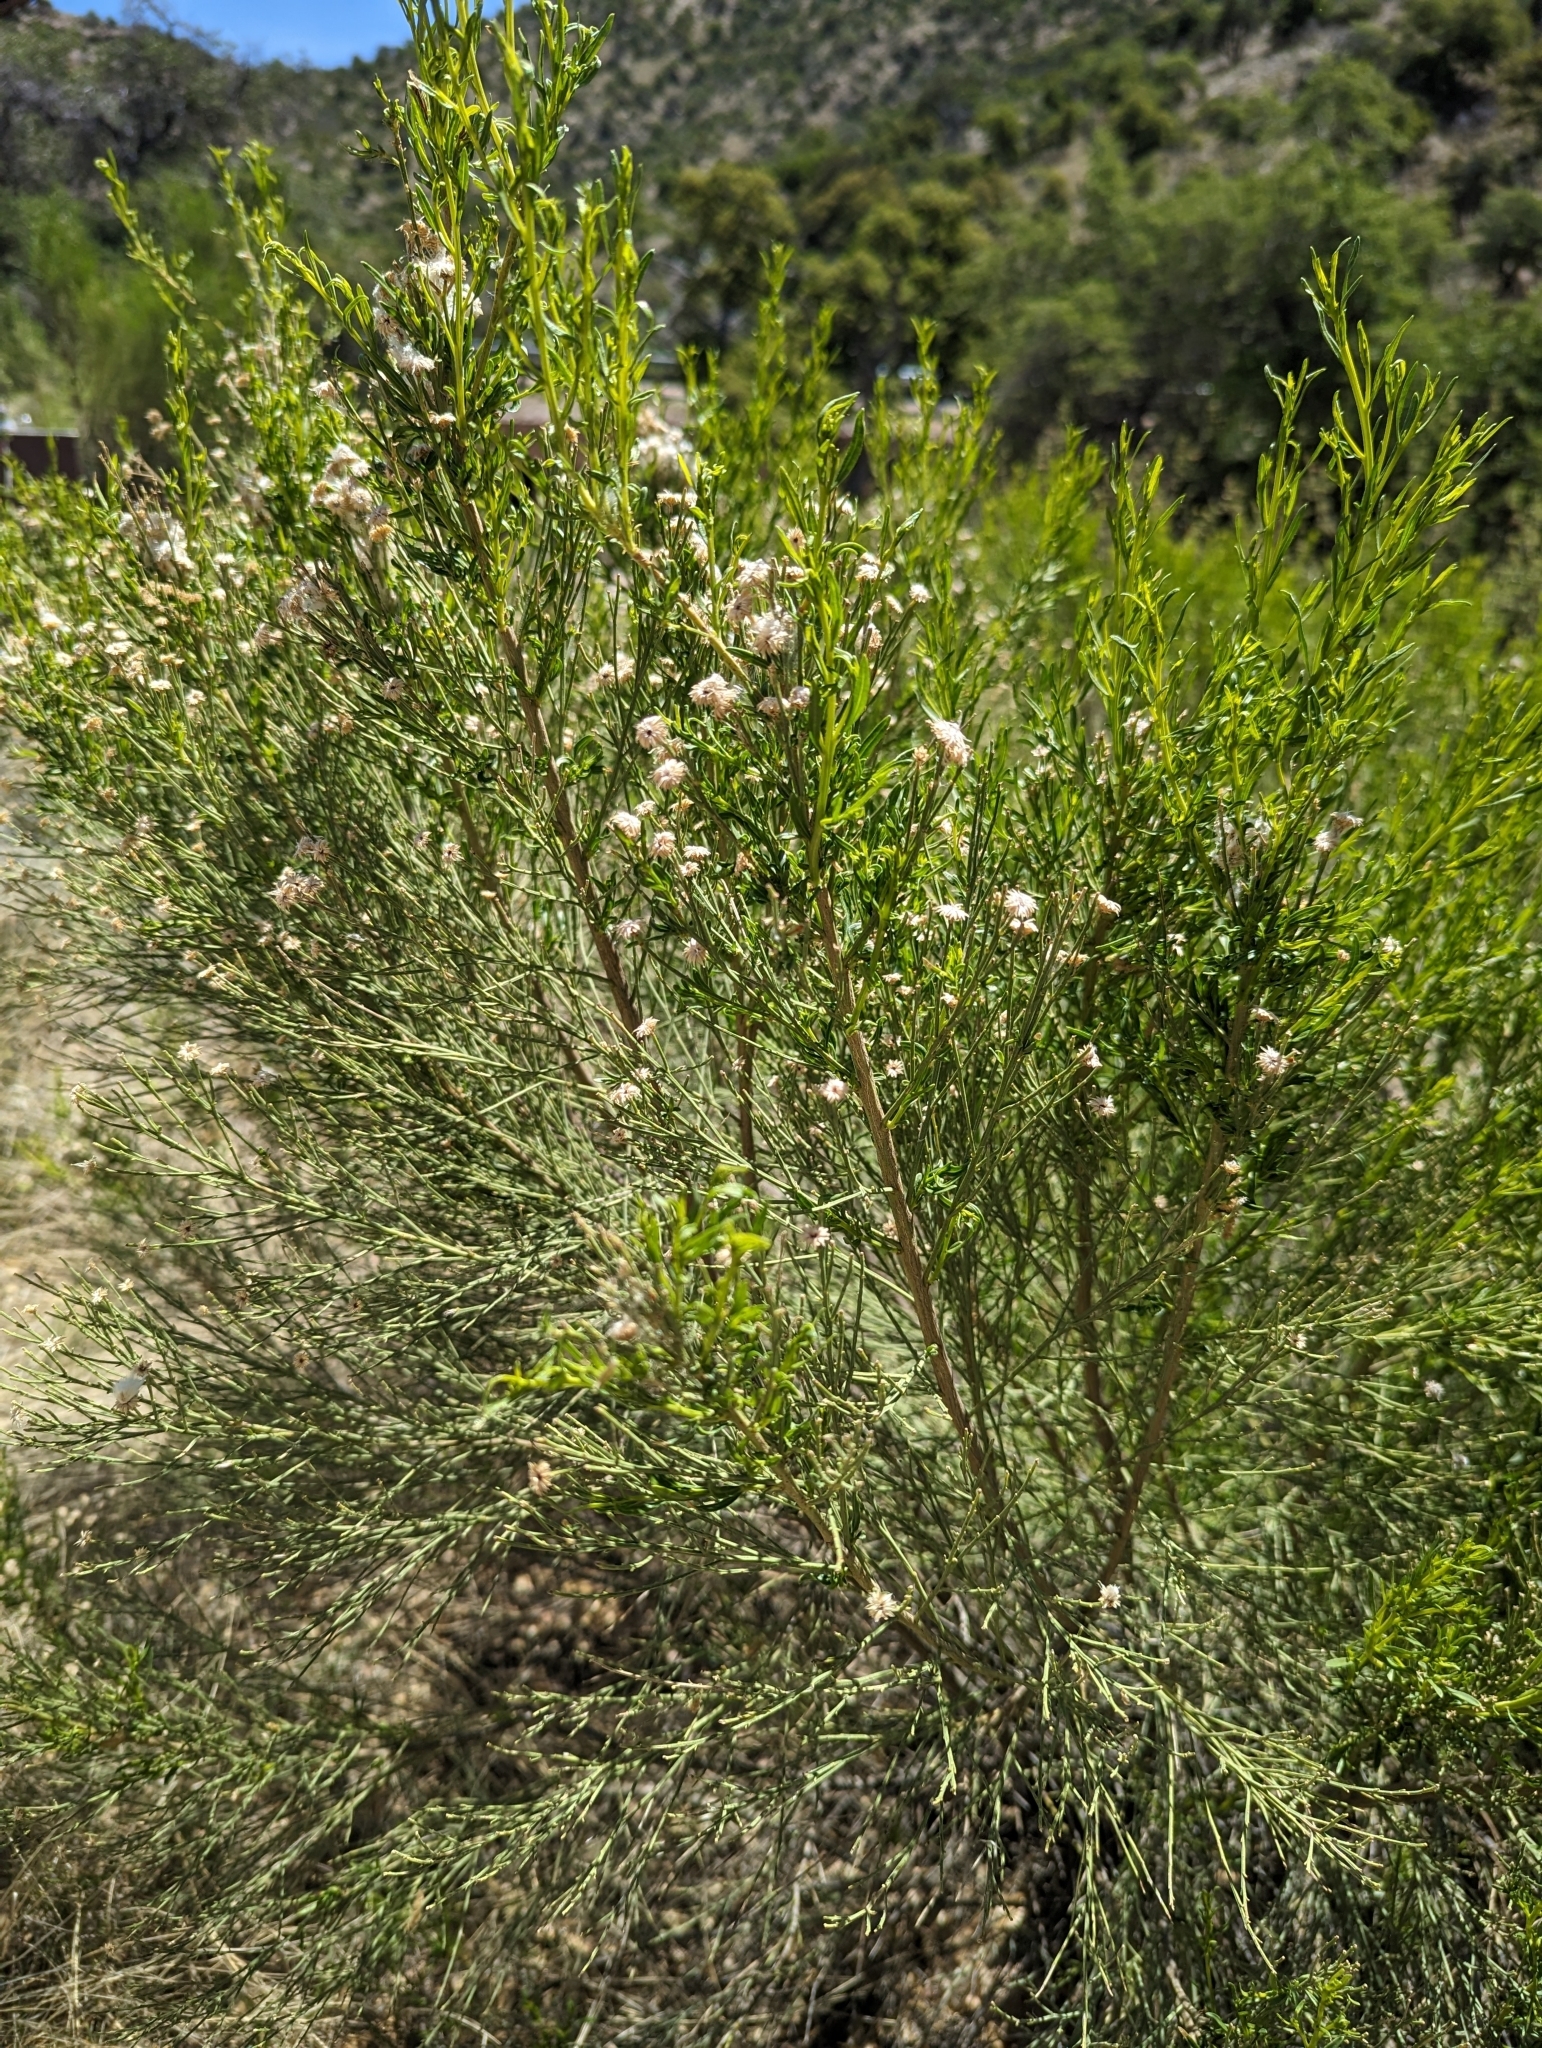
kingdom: Plantae
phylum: Tracheophyta
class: Magnoliopsida
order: Asterales
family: Asteraceae
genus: Baccharis
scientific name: Baccharis sarothroides
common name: Desert-broom
